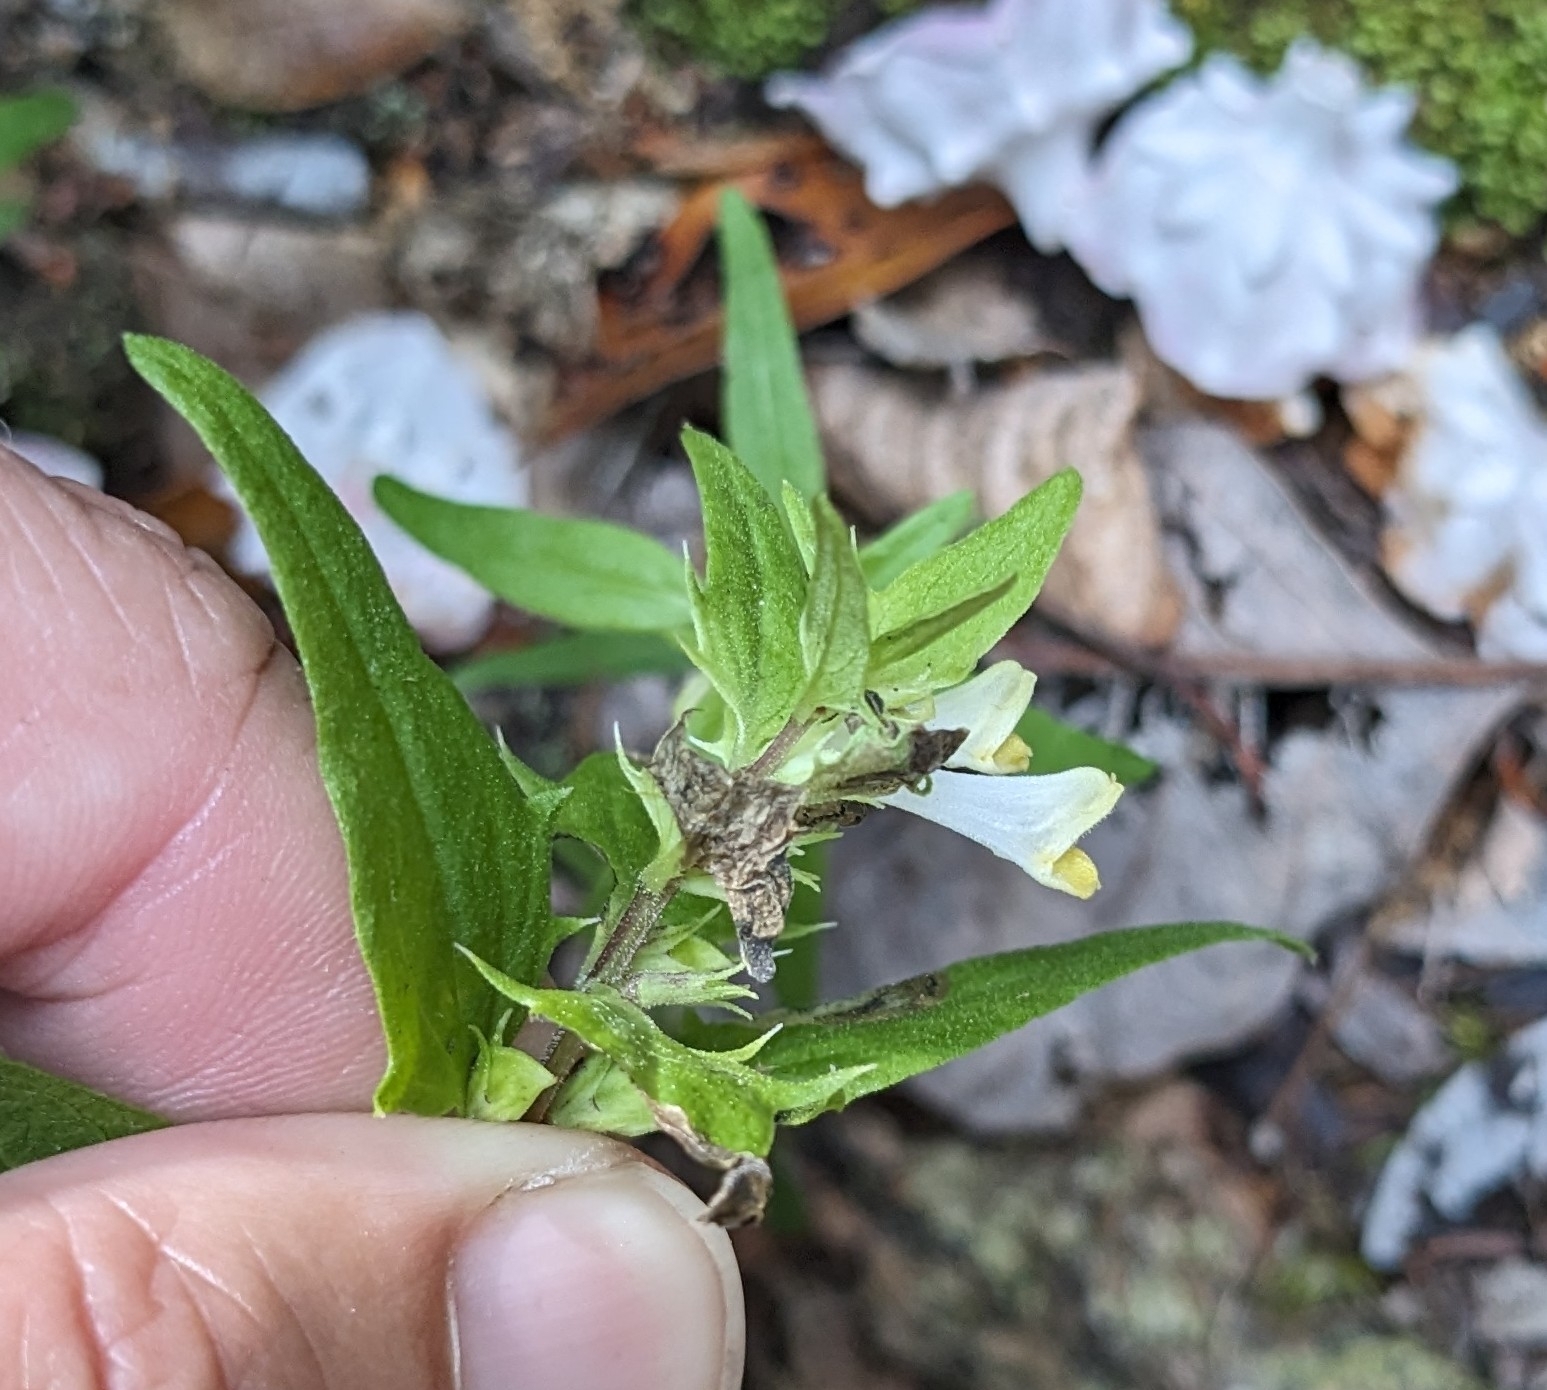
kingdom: Plantae
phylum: Tracheophyta
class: Magnoliopsida
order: Lamiales
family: Orobanchaceae
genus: Melampyrum
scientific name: Melampyrum lineare
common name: American cow-wheat
